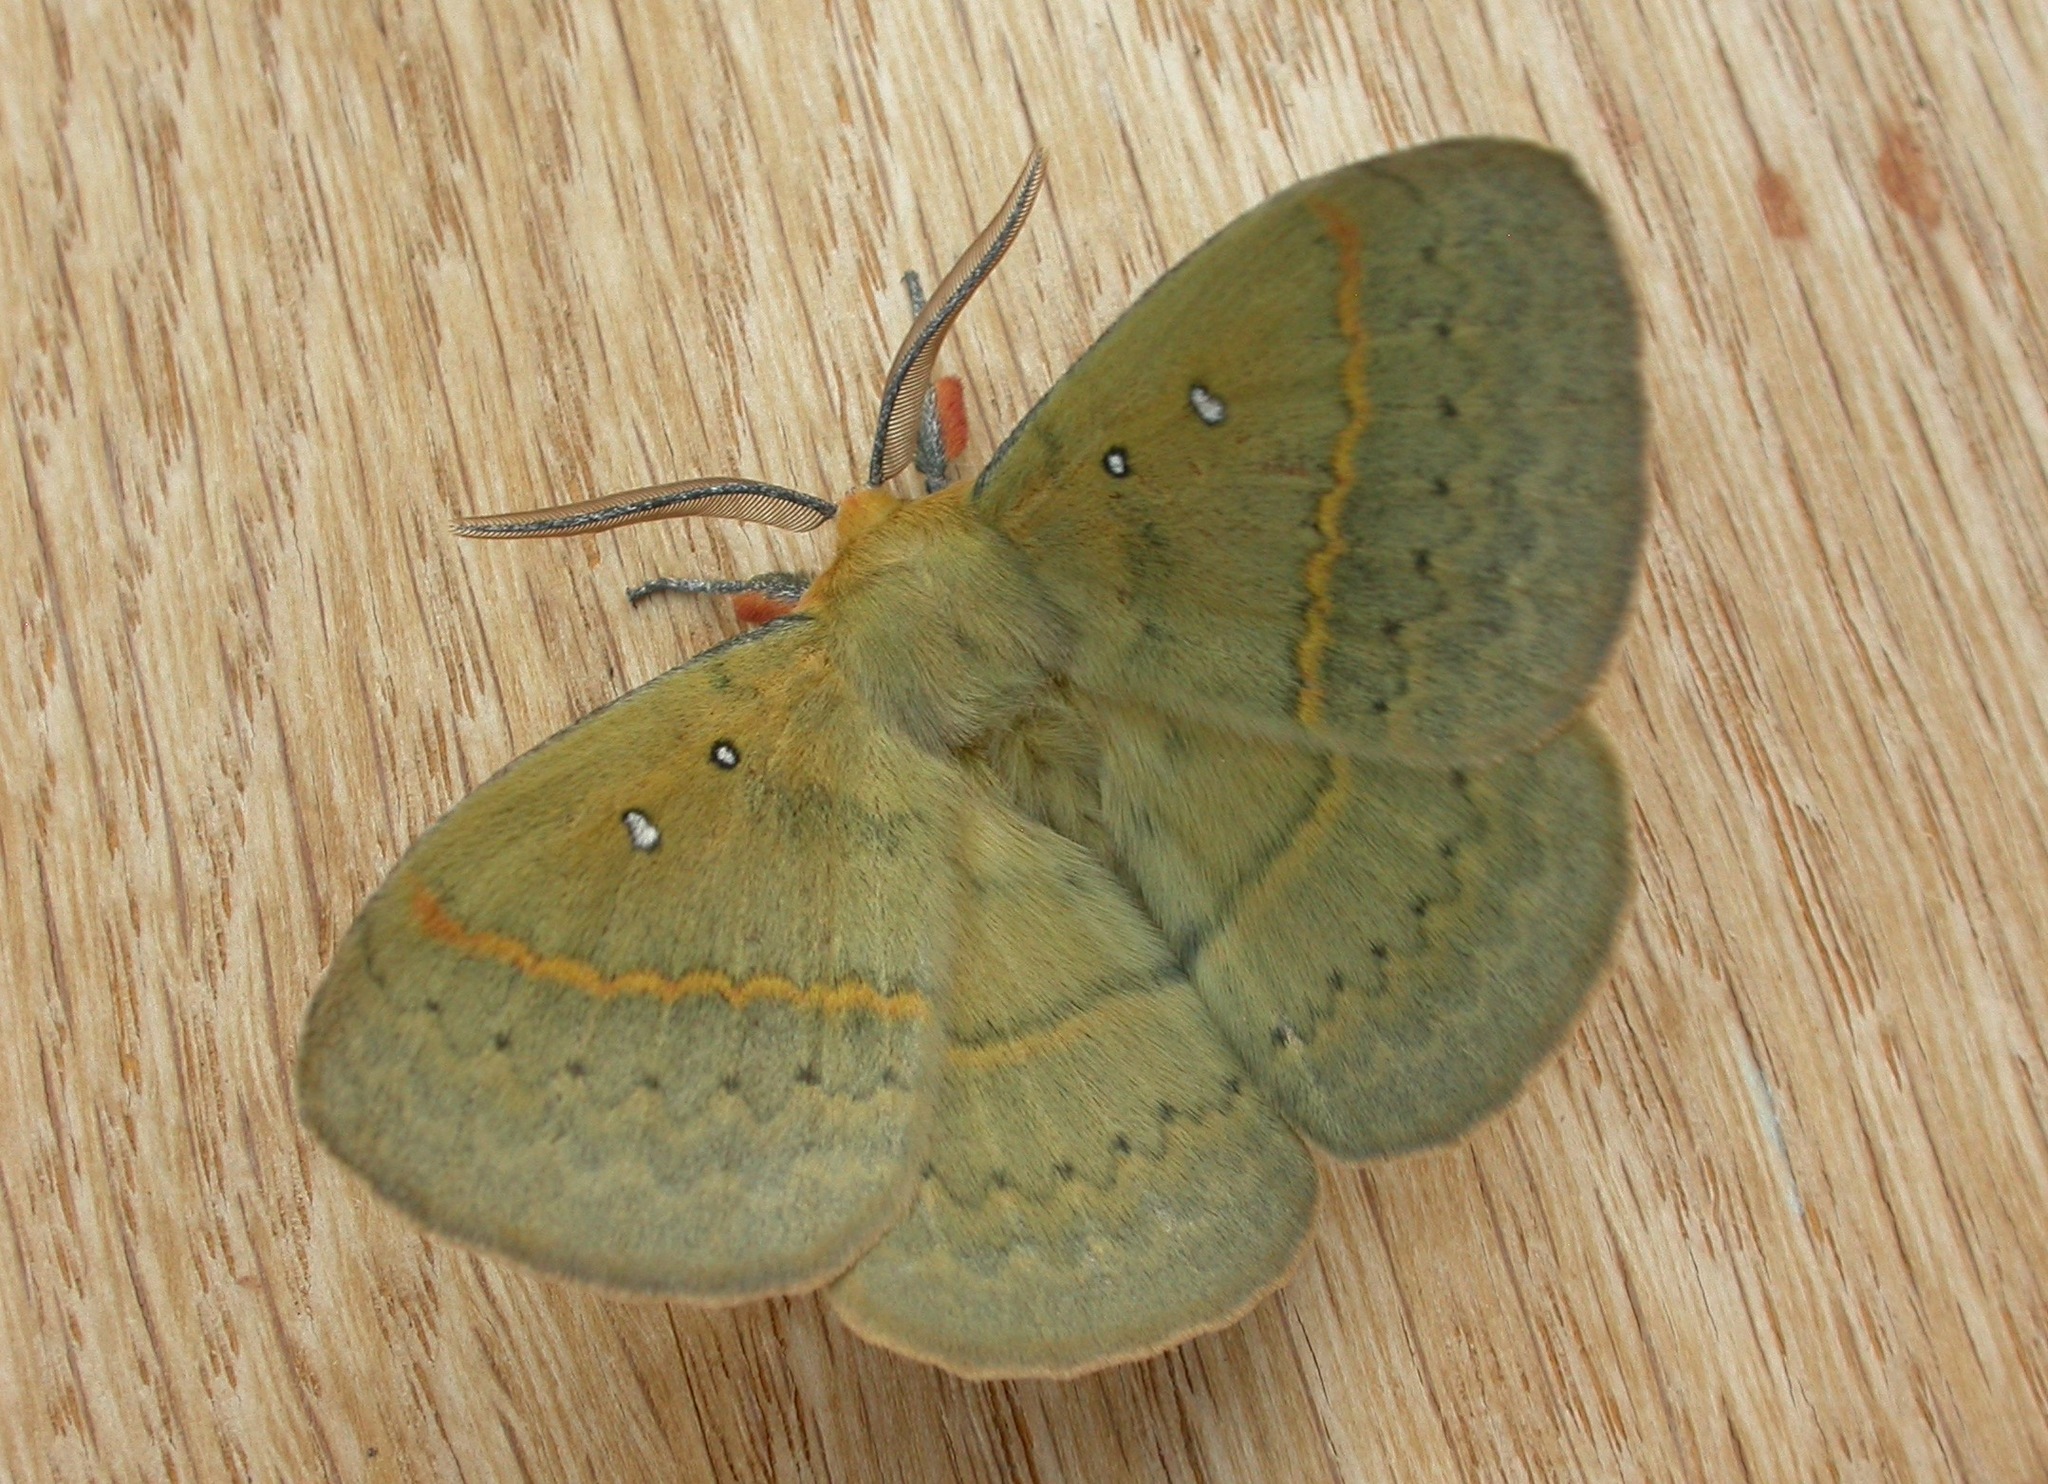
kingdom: Animalia
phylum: Arthropoda
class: Insecta
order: Lepidoptera
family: Anthelidae
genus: Anthela
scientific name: Anthela nicothoe
